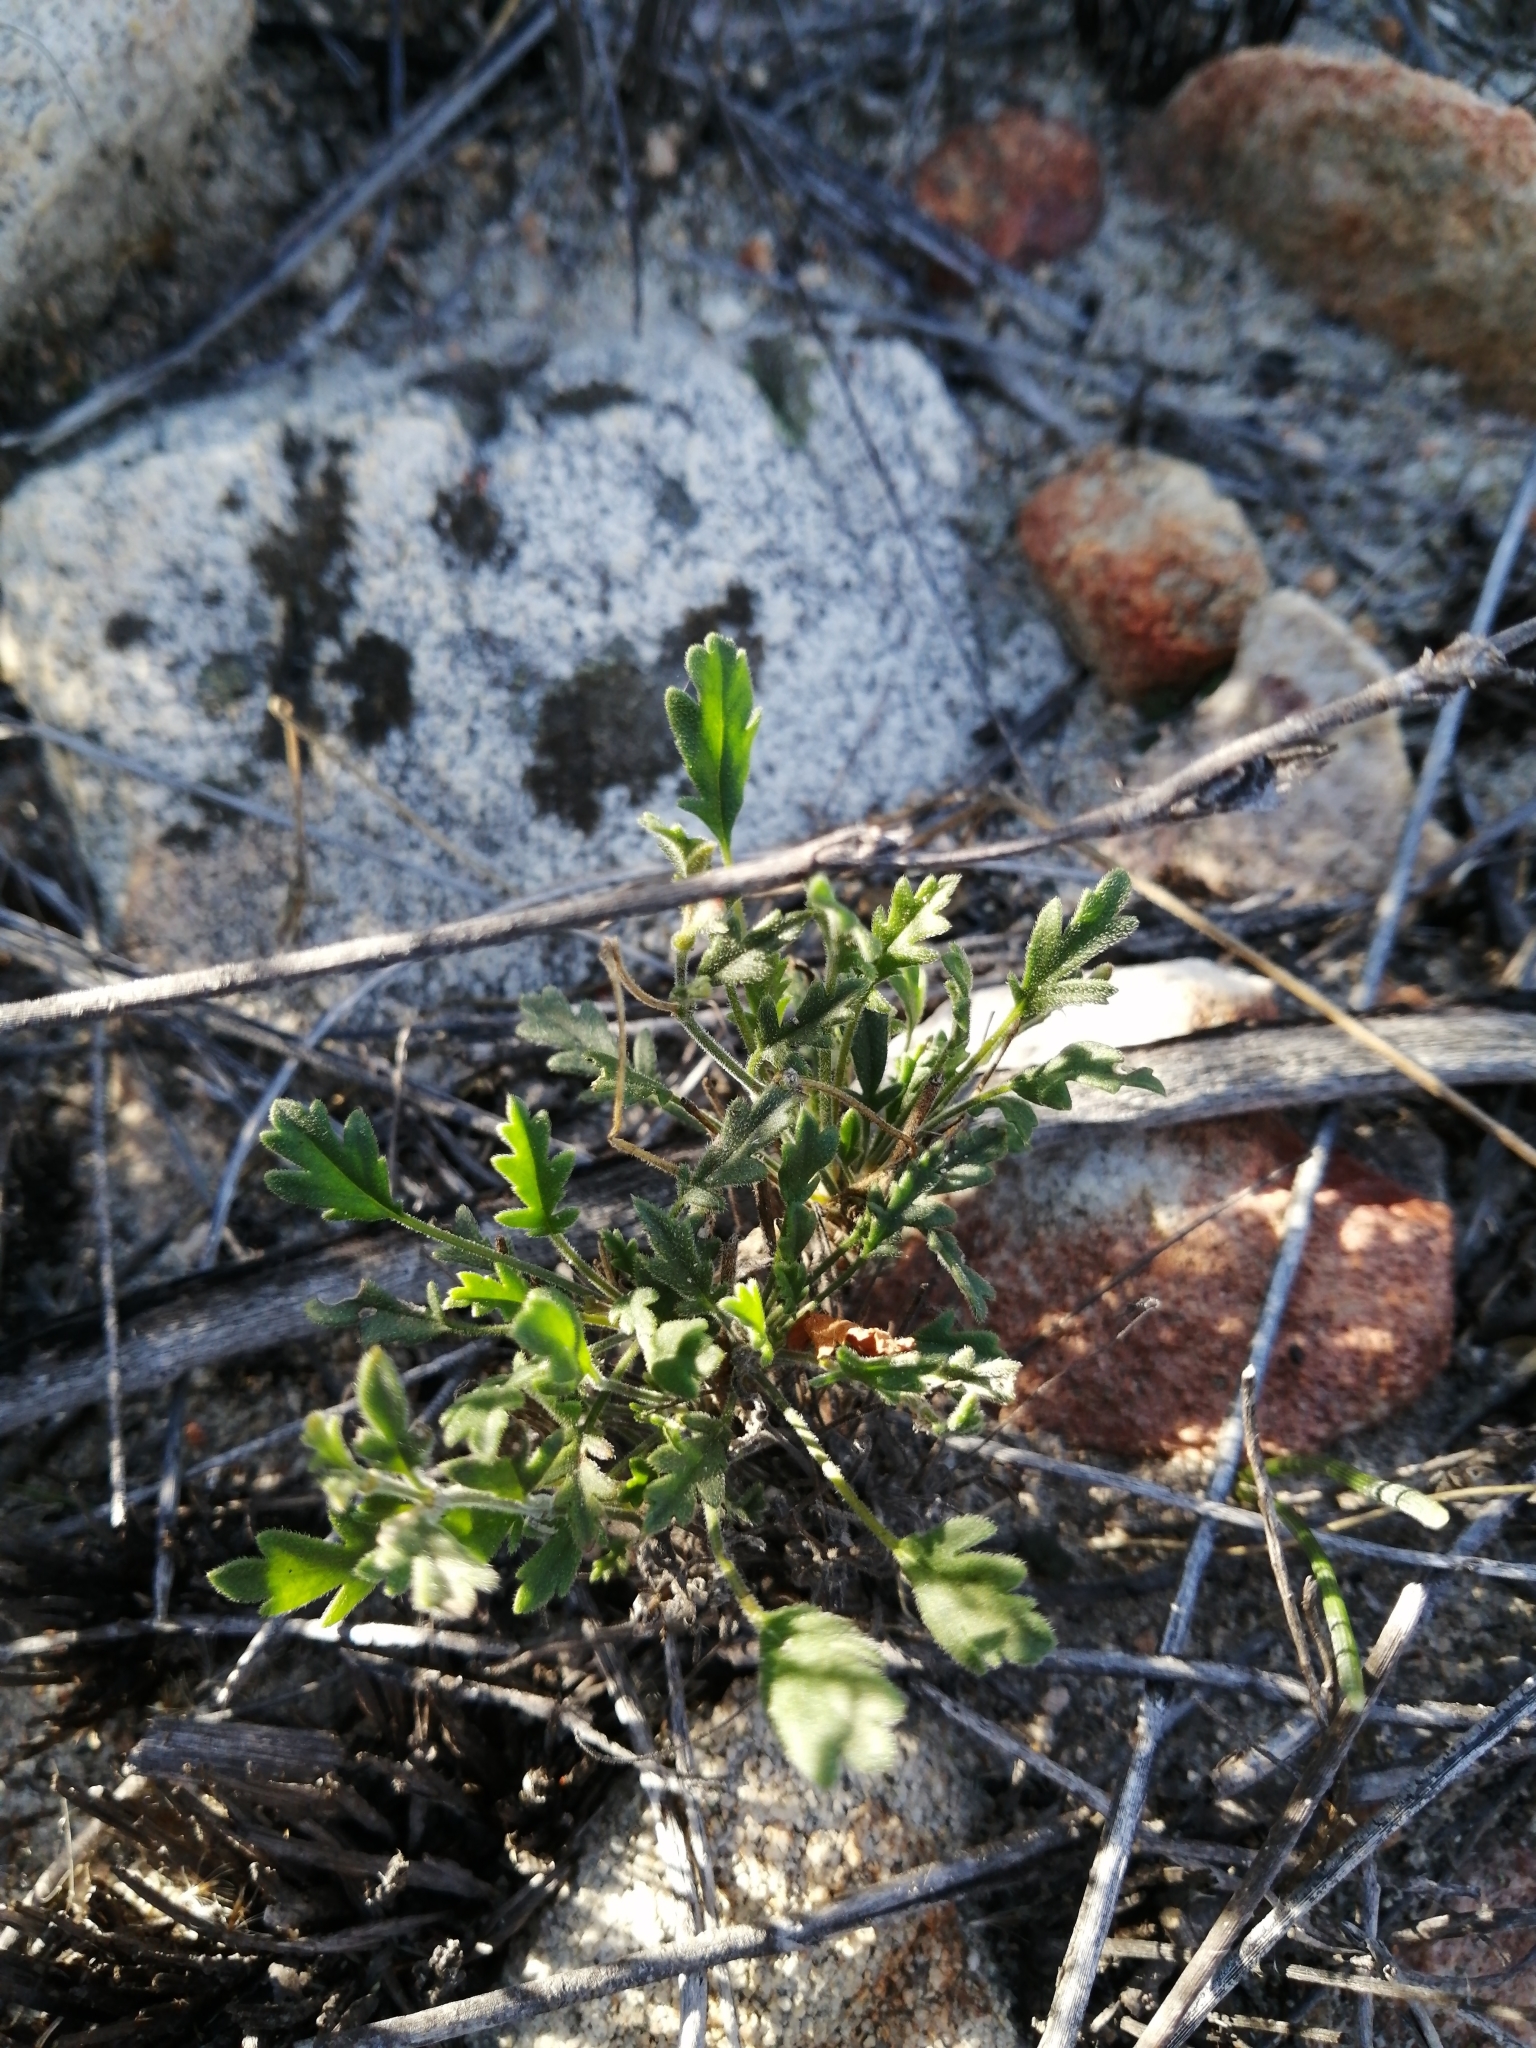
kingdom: Plantae
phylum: Tracheophyta
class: Magnoliopsida
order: Geraniales
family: Geraniaceae
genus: Pelargonium
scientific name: Pelargonium capillare
